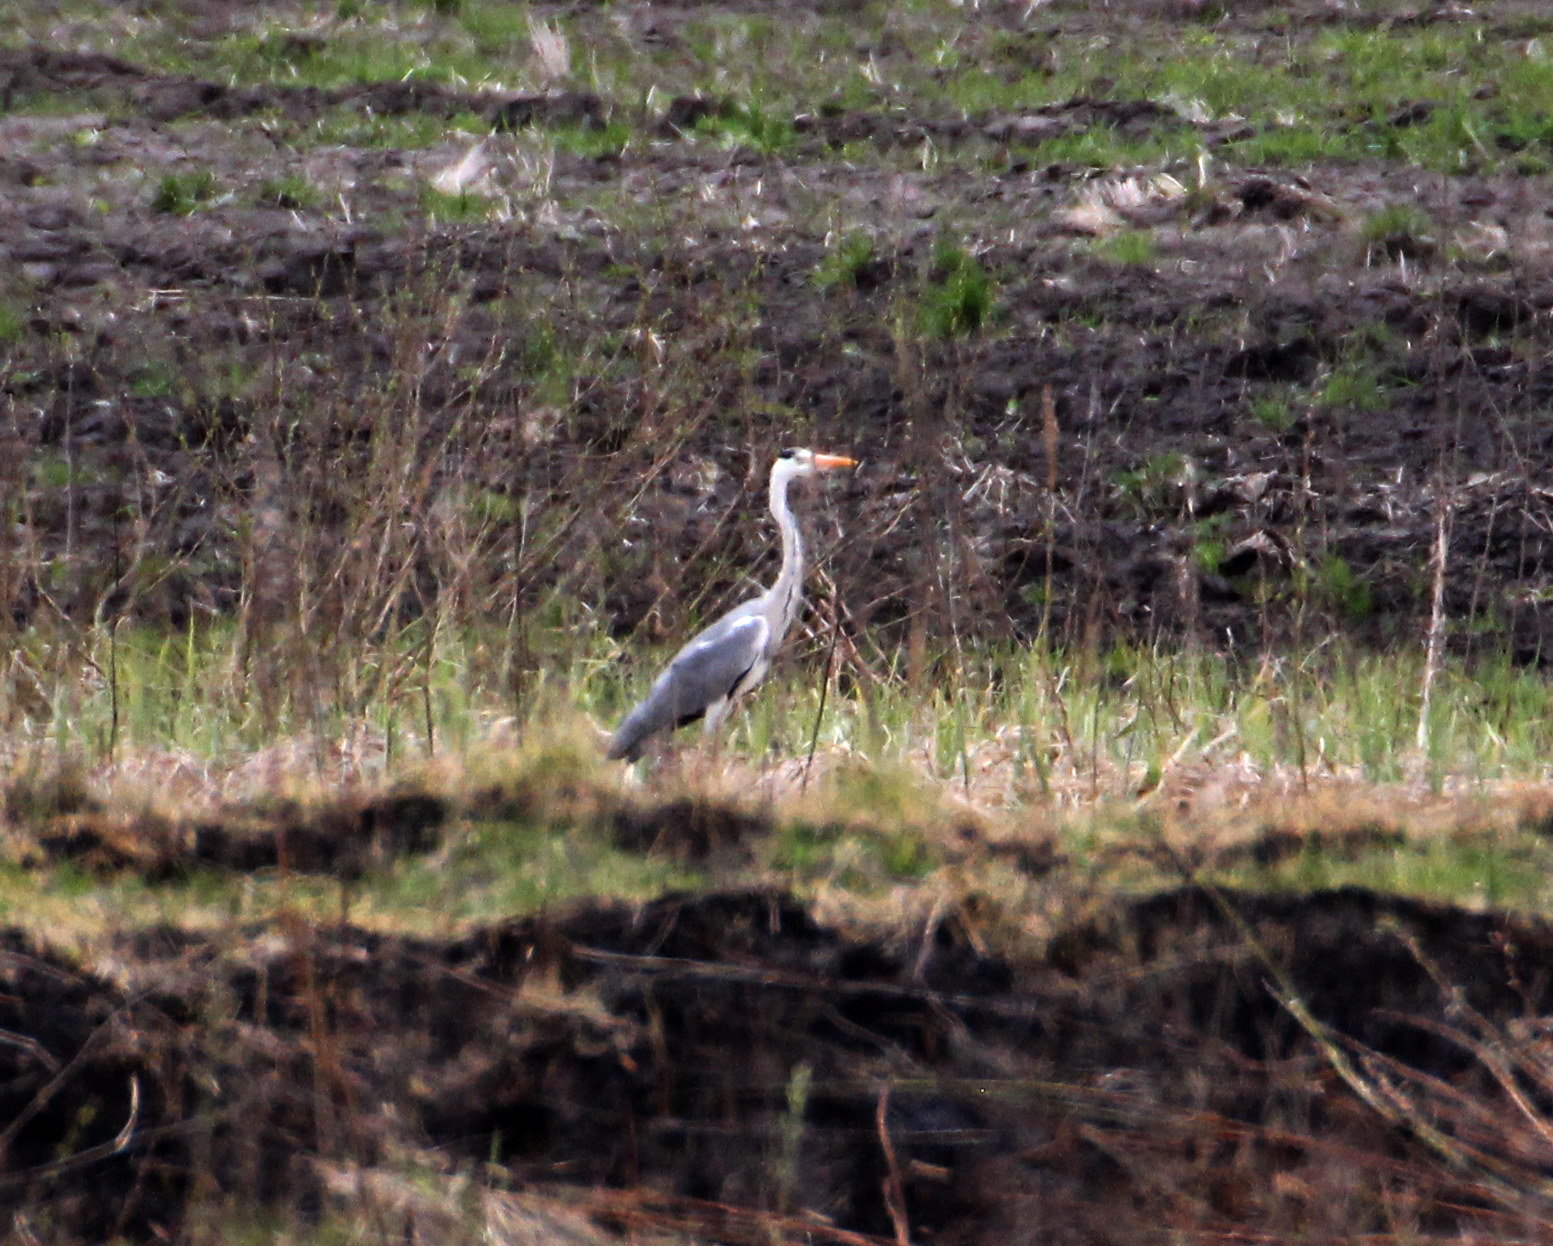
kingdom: Animalia
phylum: Chordata
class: Aves
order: Pelecaniformes
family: Ardeidae
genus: Ardea
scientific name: Ardea cinerea
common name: Grey heron
